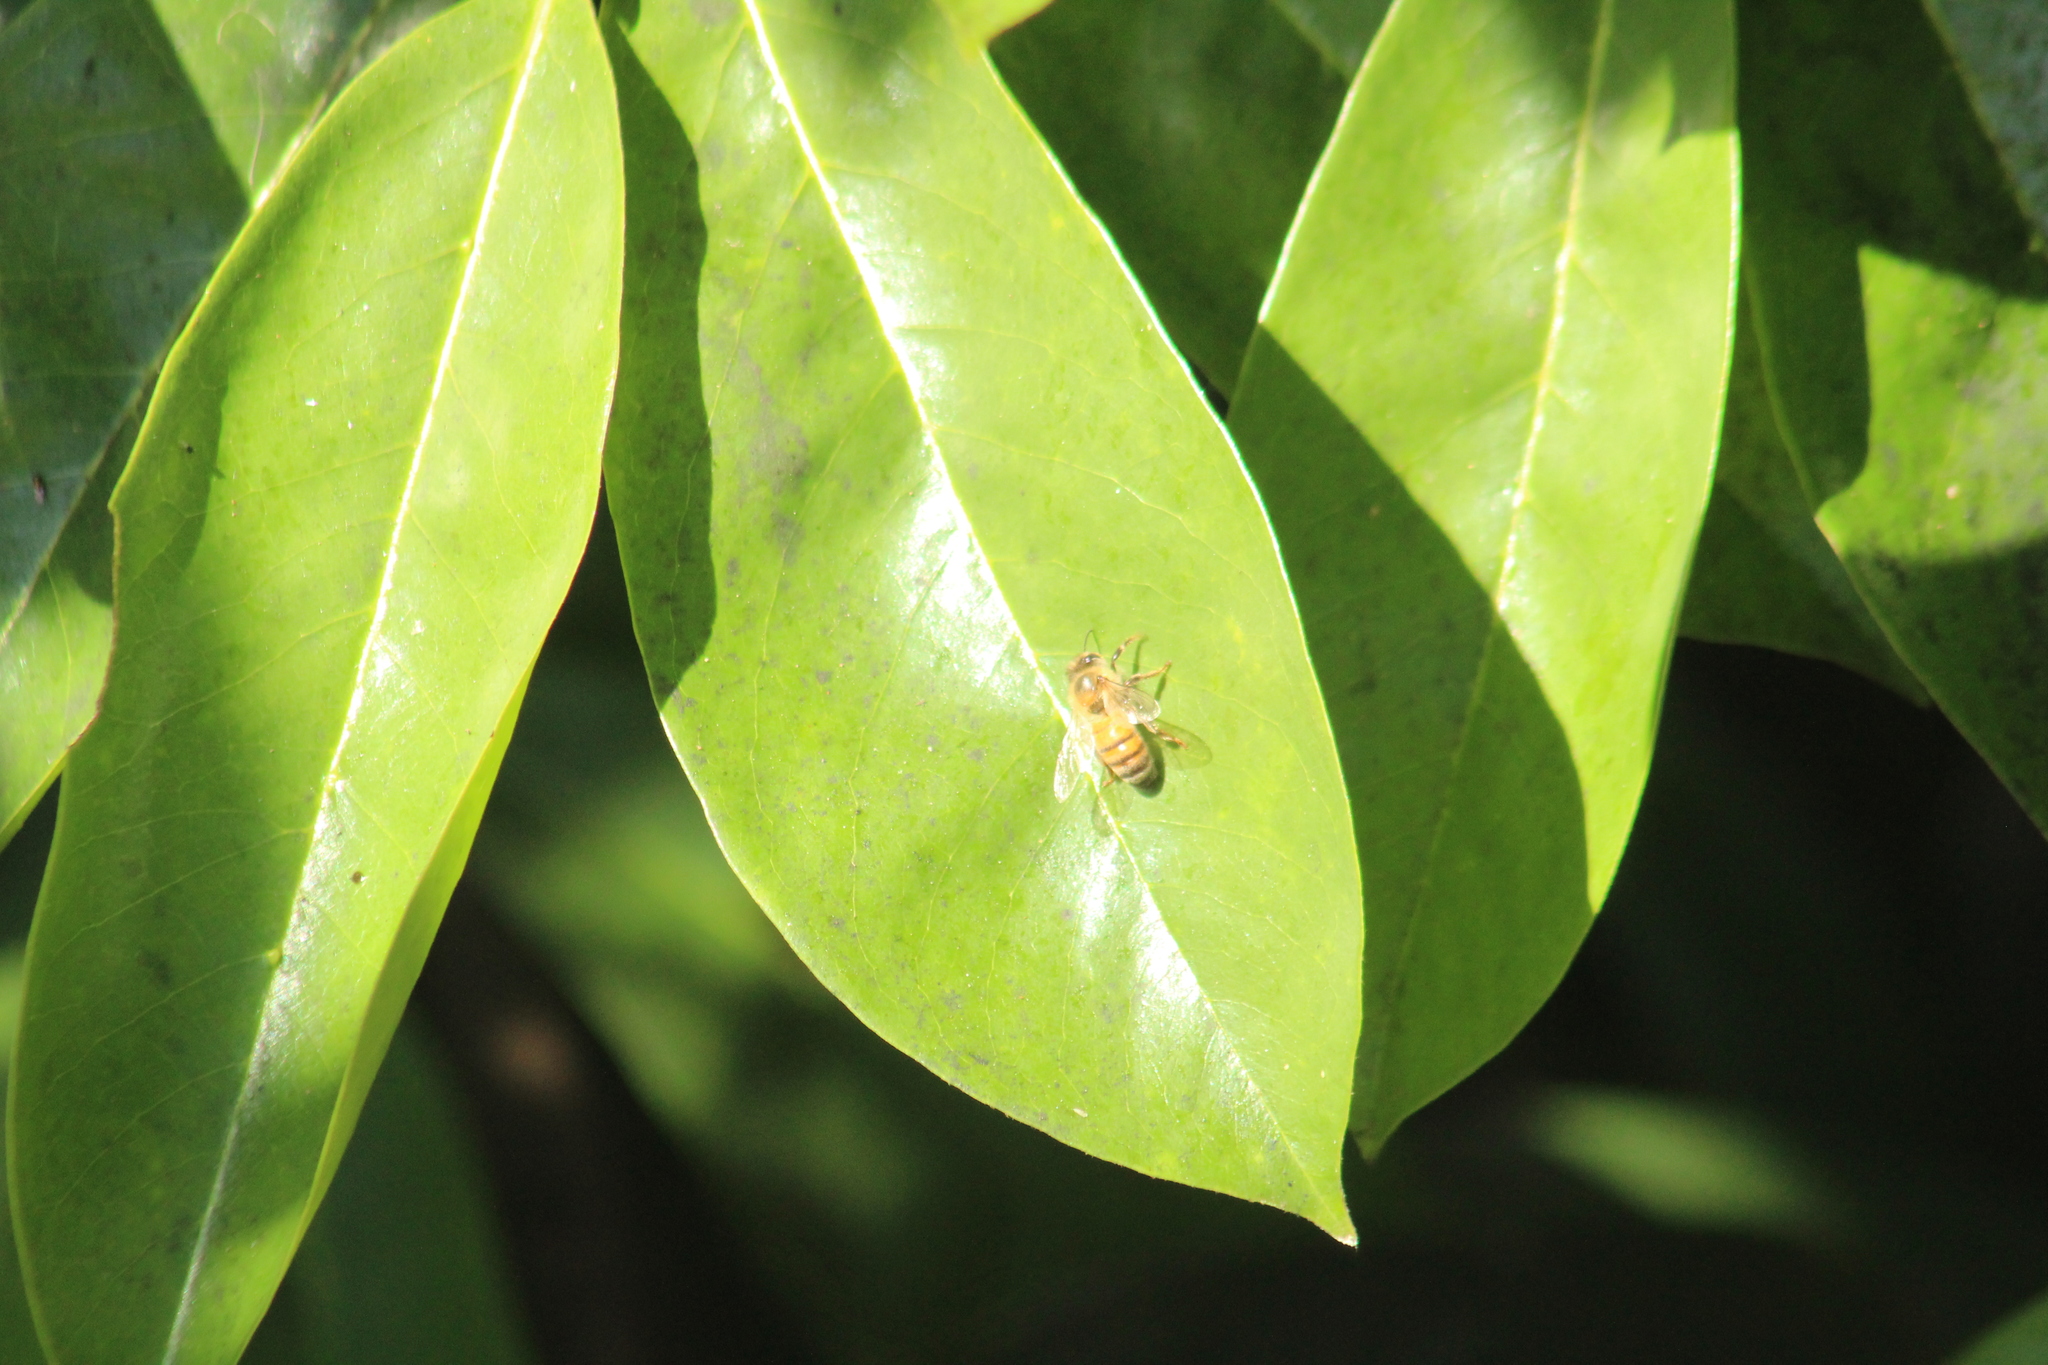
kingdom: Animalia
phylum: Arthropoda
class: Insecta
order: Hymenoptera
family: Apidae
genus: Apis
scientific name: Apis mellifera
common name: Honey bee
